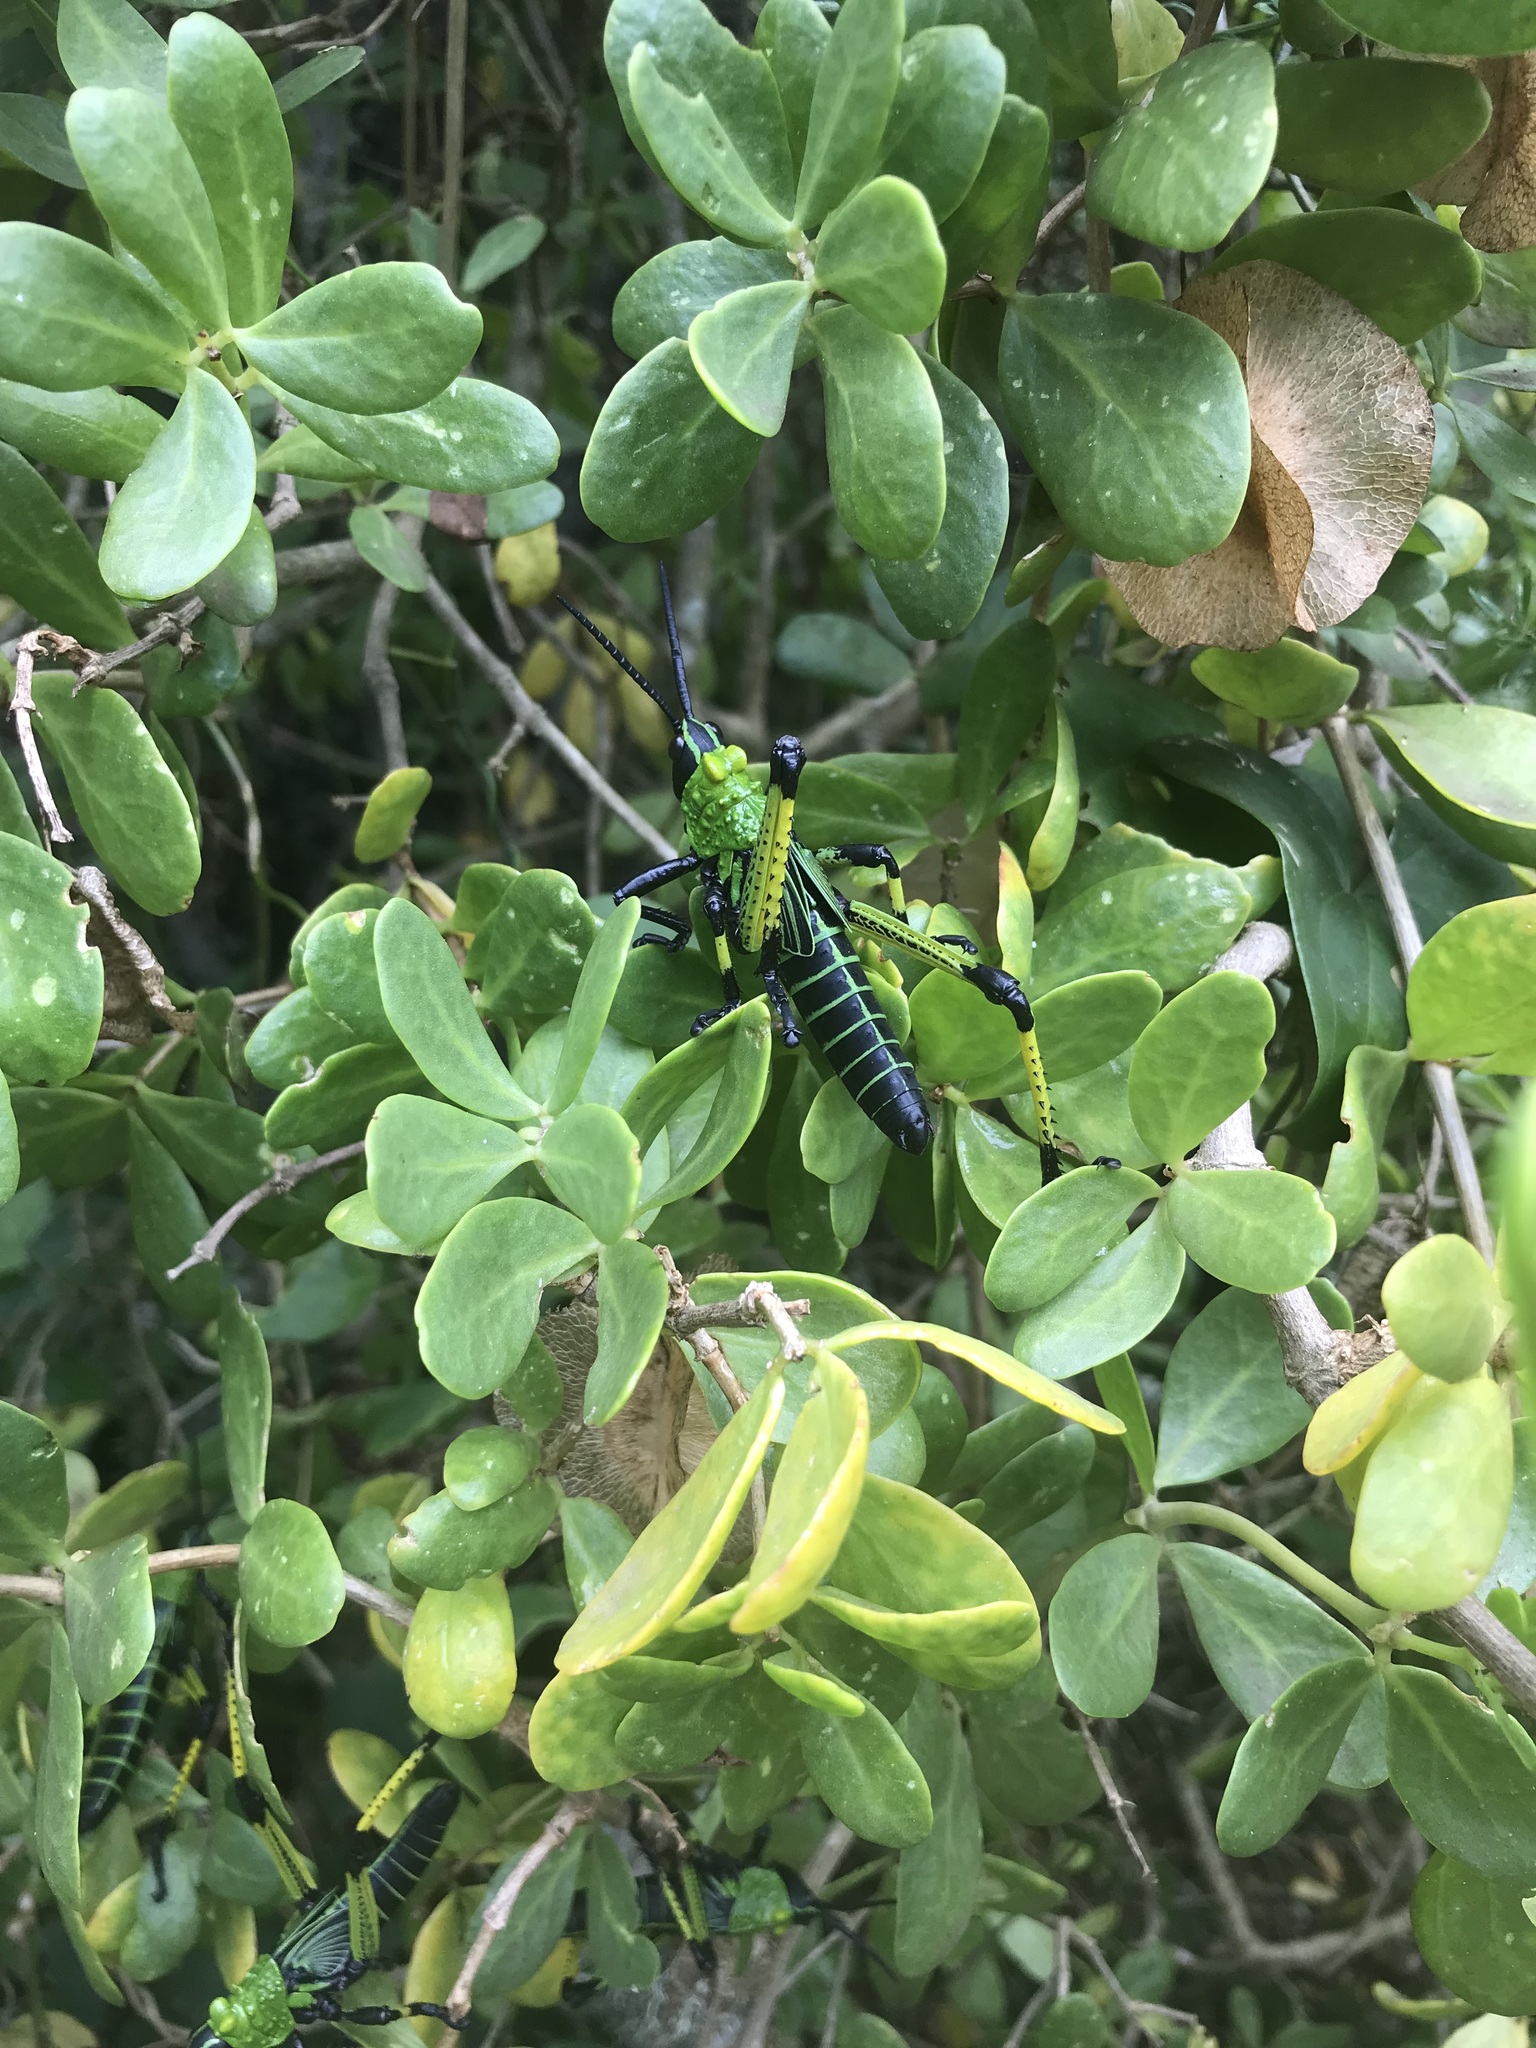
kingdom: Animalia
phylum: Arthropoda
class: Insecta
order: Orthoptera
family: Pyrgomorphidae
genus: Phymateus
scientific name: Phymateus leprosus
